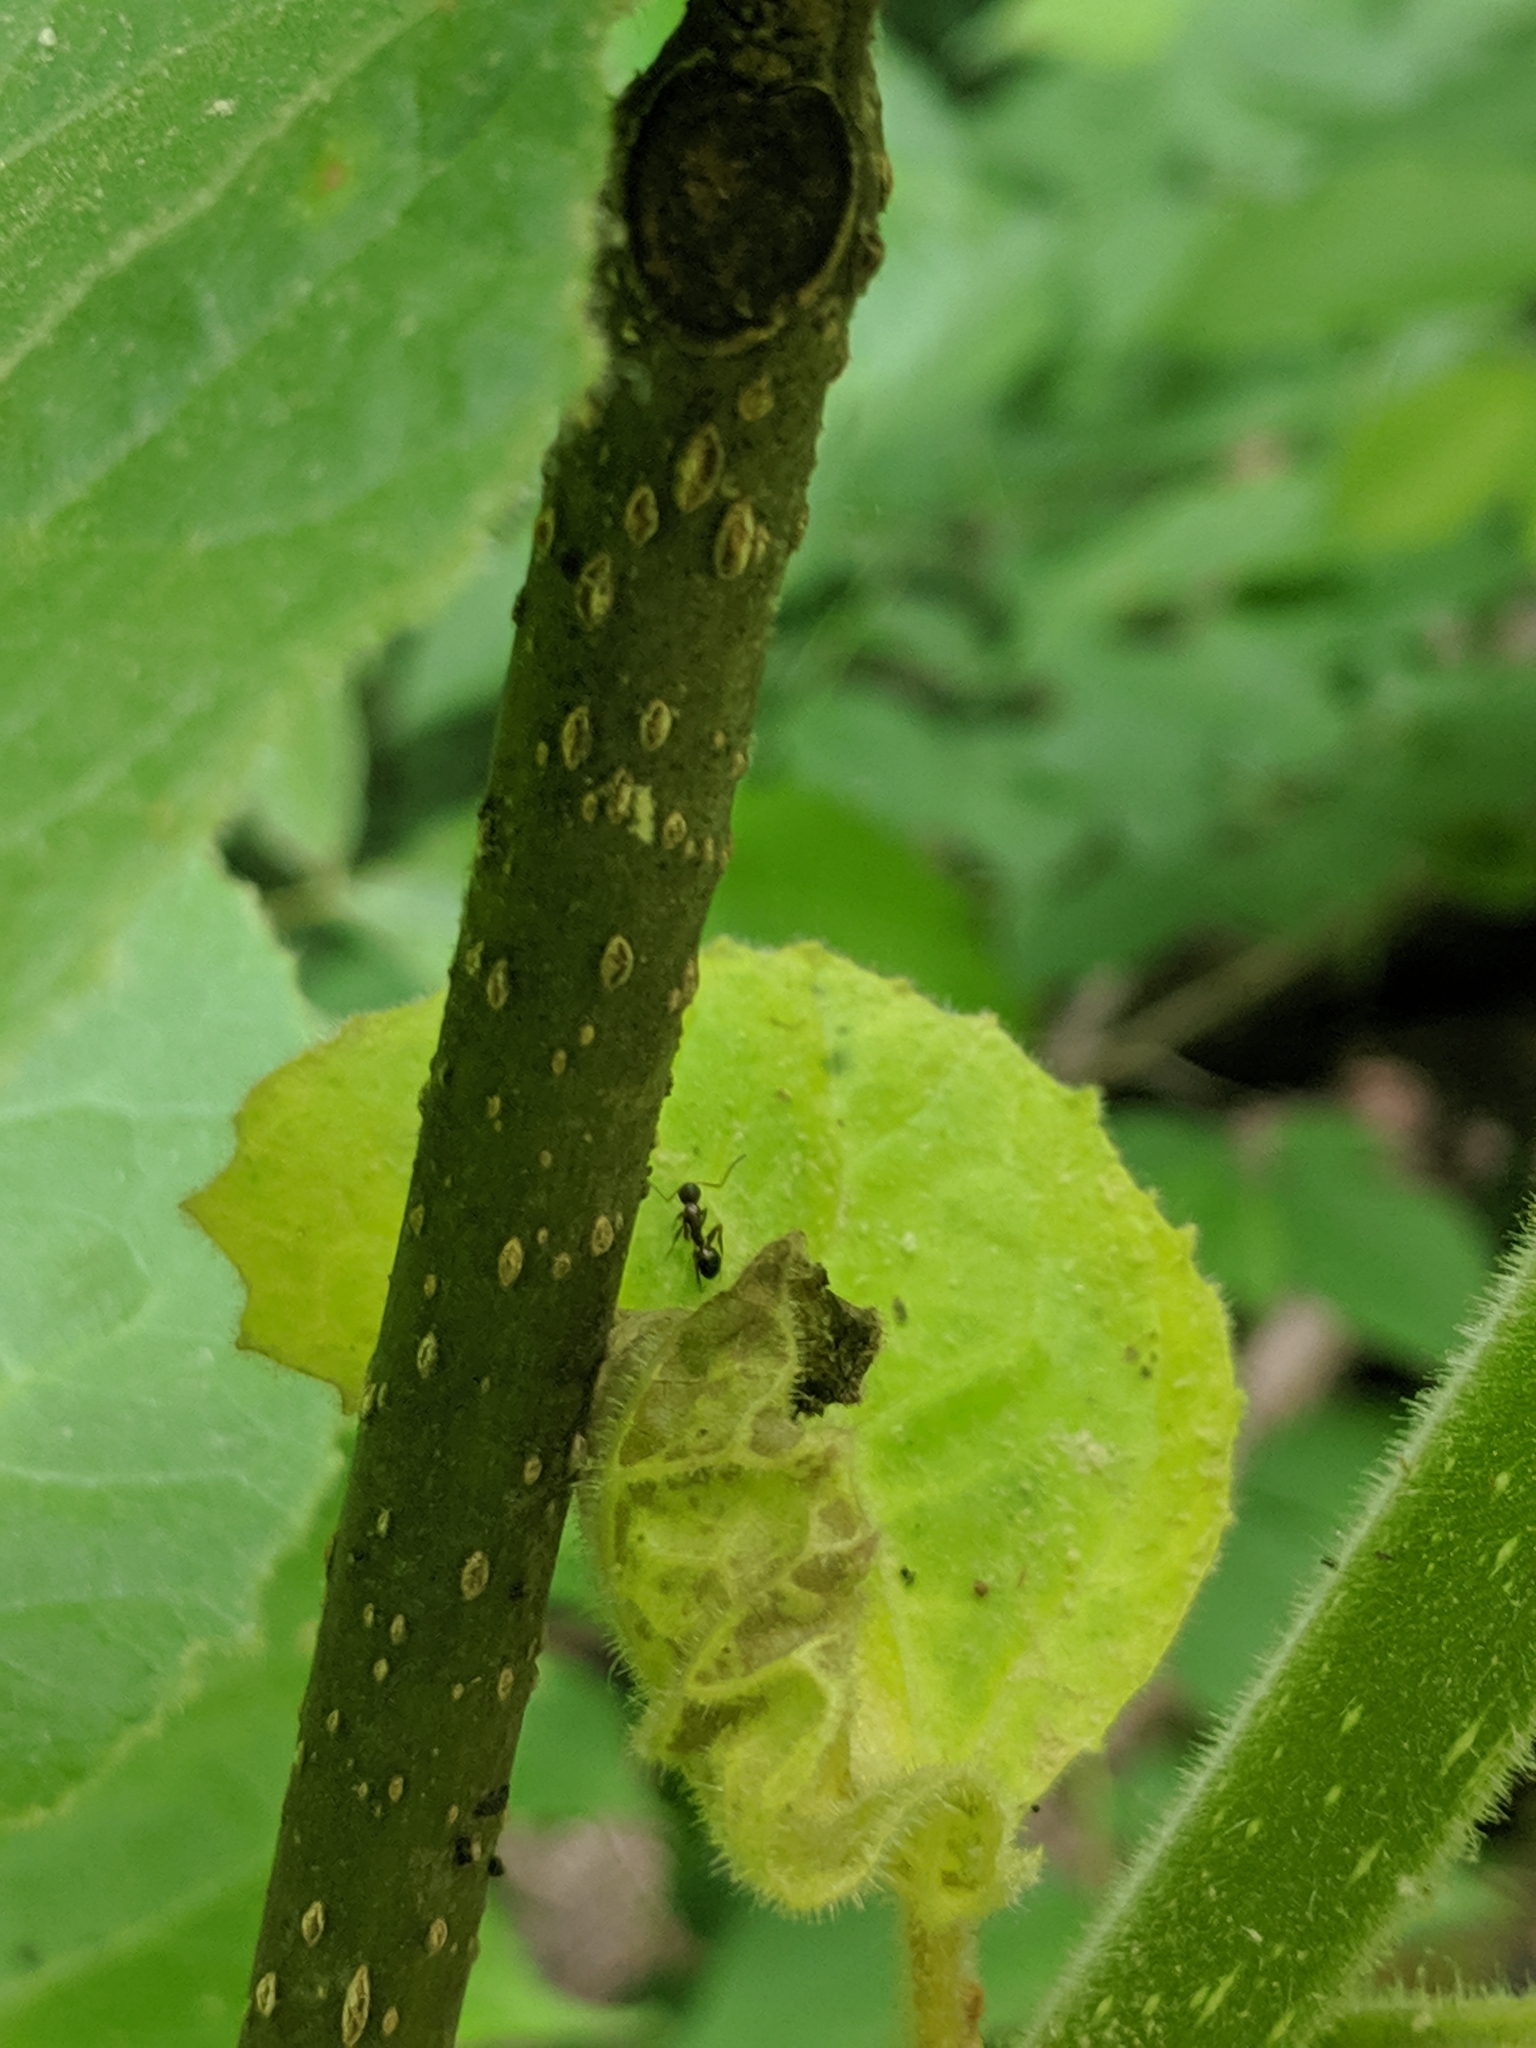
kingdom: Plantae
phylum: Tracheophyta
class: Magnoliopsida
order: Lamiales
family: Paulowniaceae
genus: Paulownia
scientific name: Paulownia tomentosa
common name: Foxglove-tree
